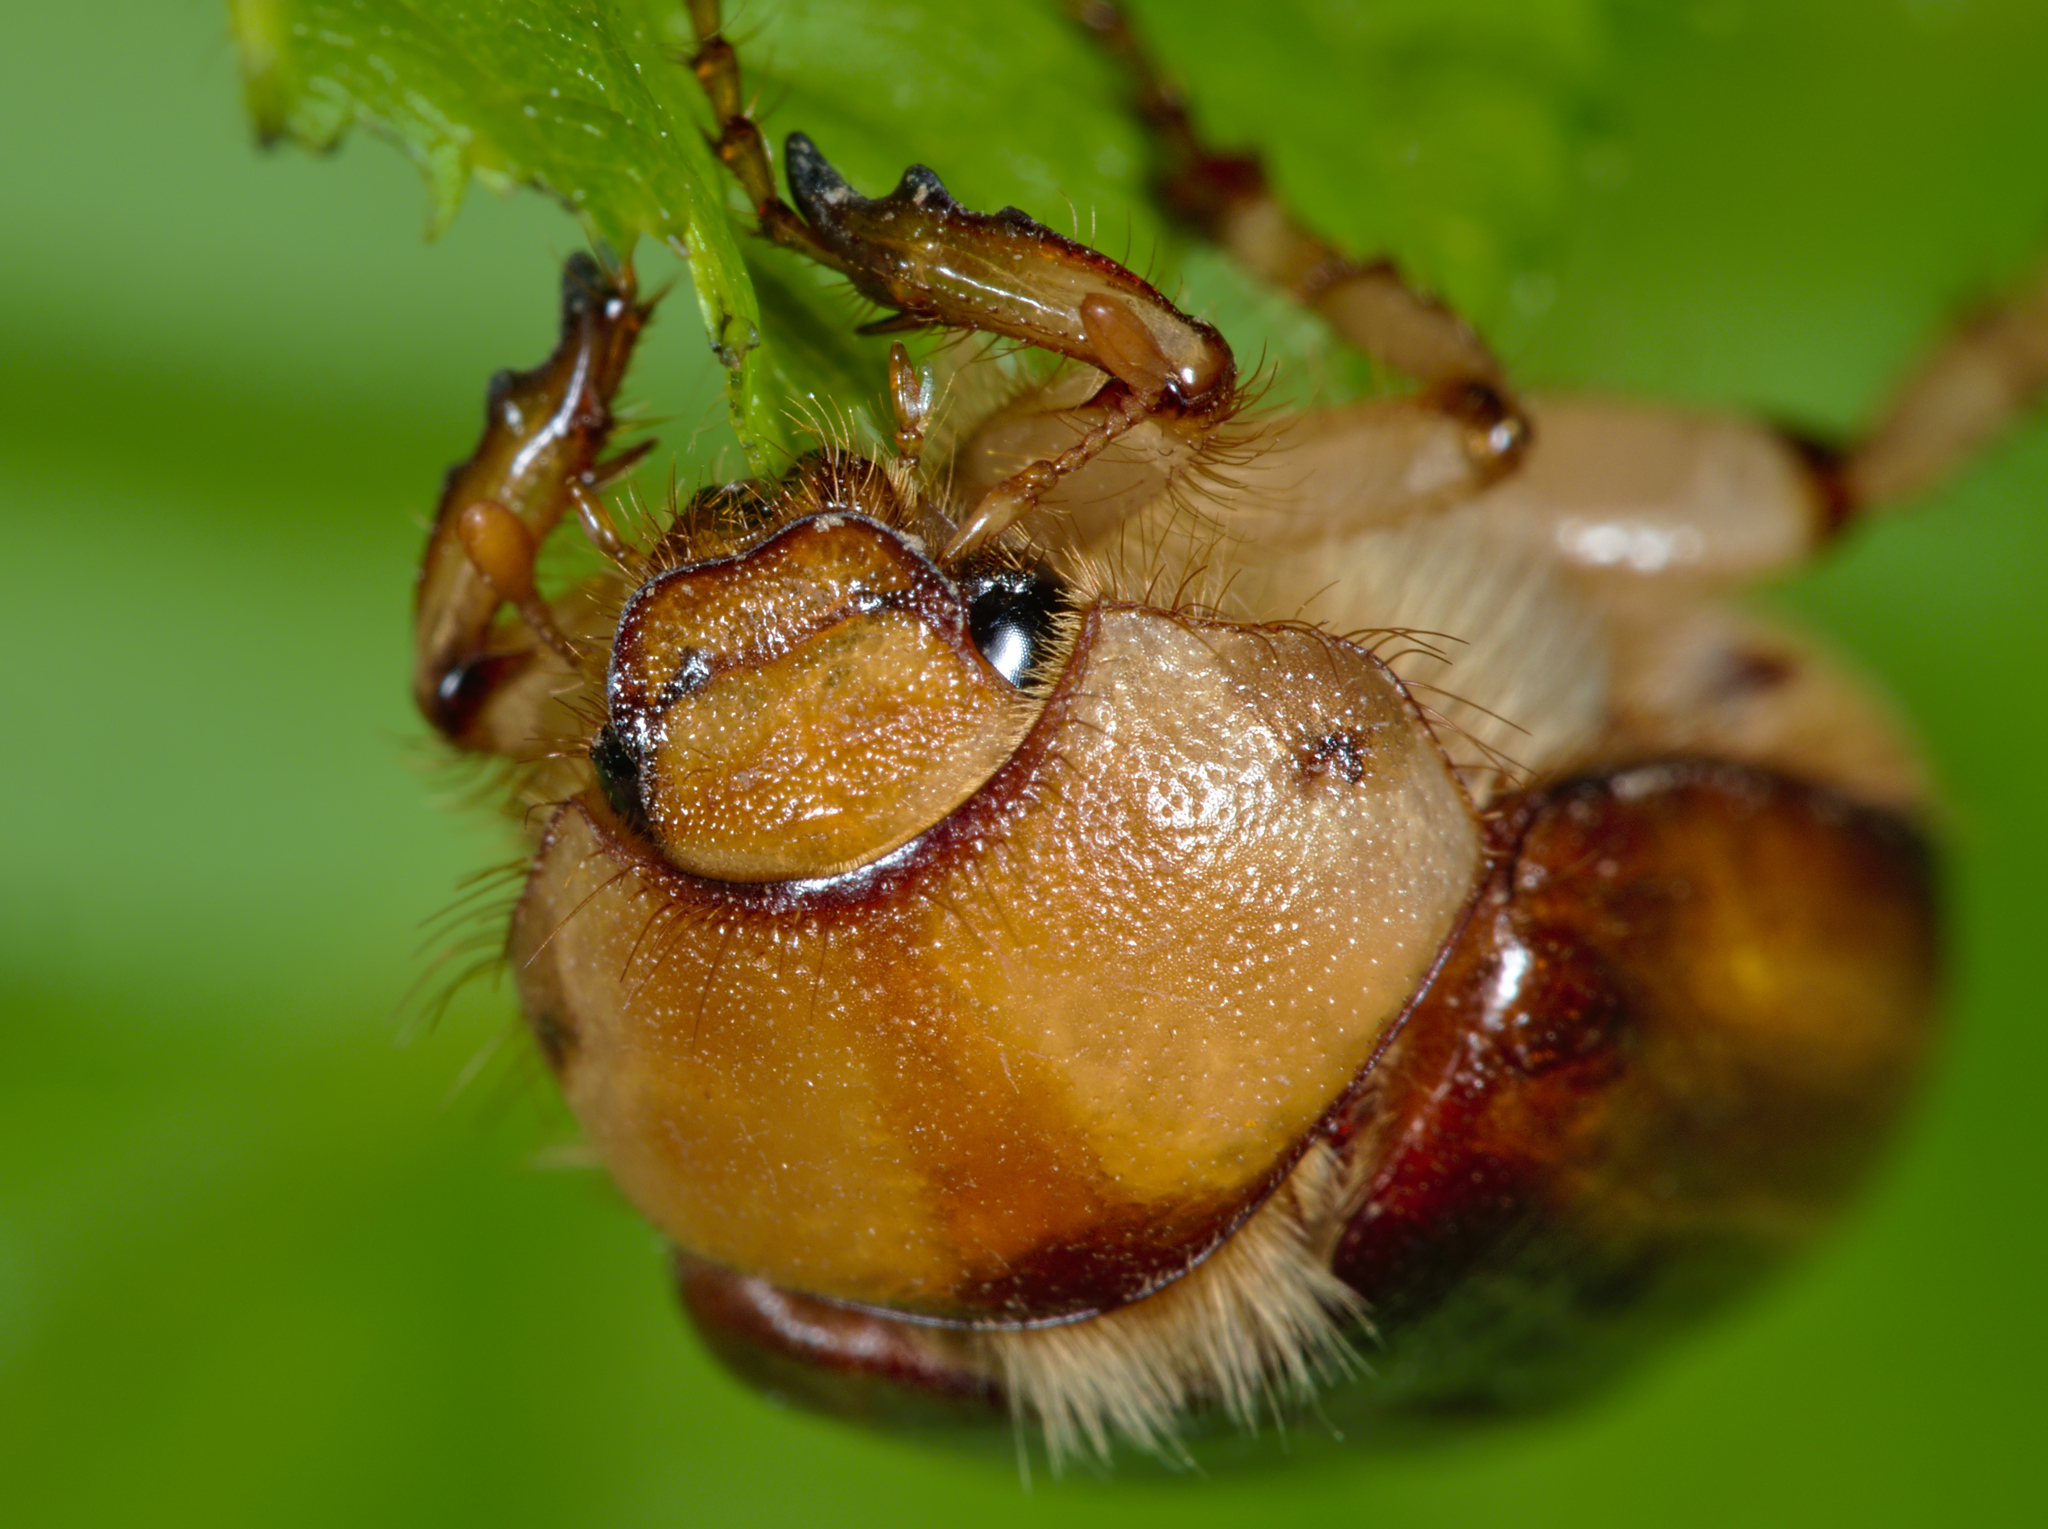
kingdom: Animalia
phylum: Arthropoda
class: Insecta
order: Coleoptera
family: Scarabaeidae
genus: Rhizotrogus
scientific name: Rhizotrogus aestivus
